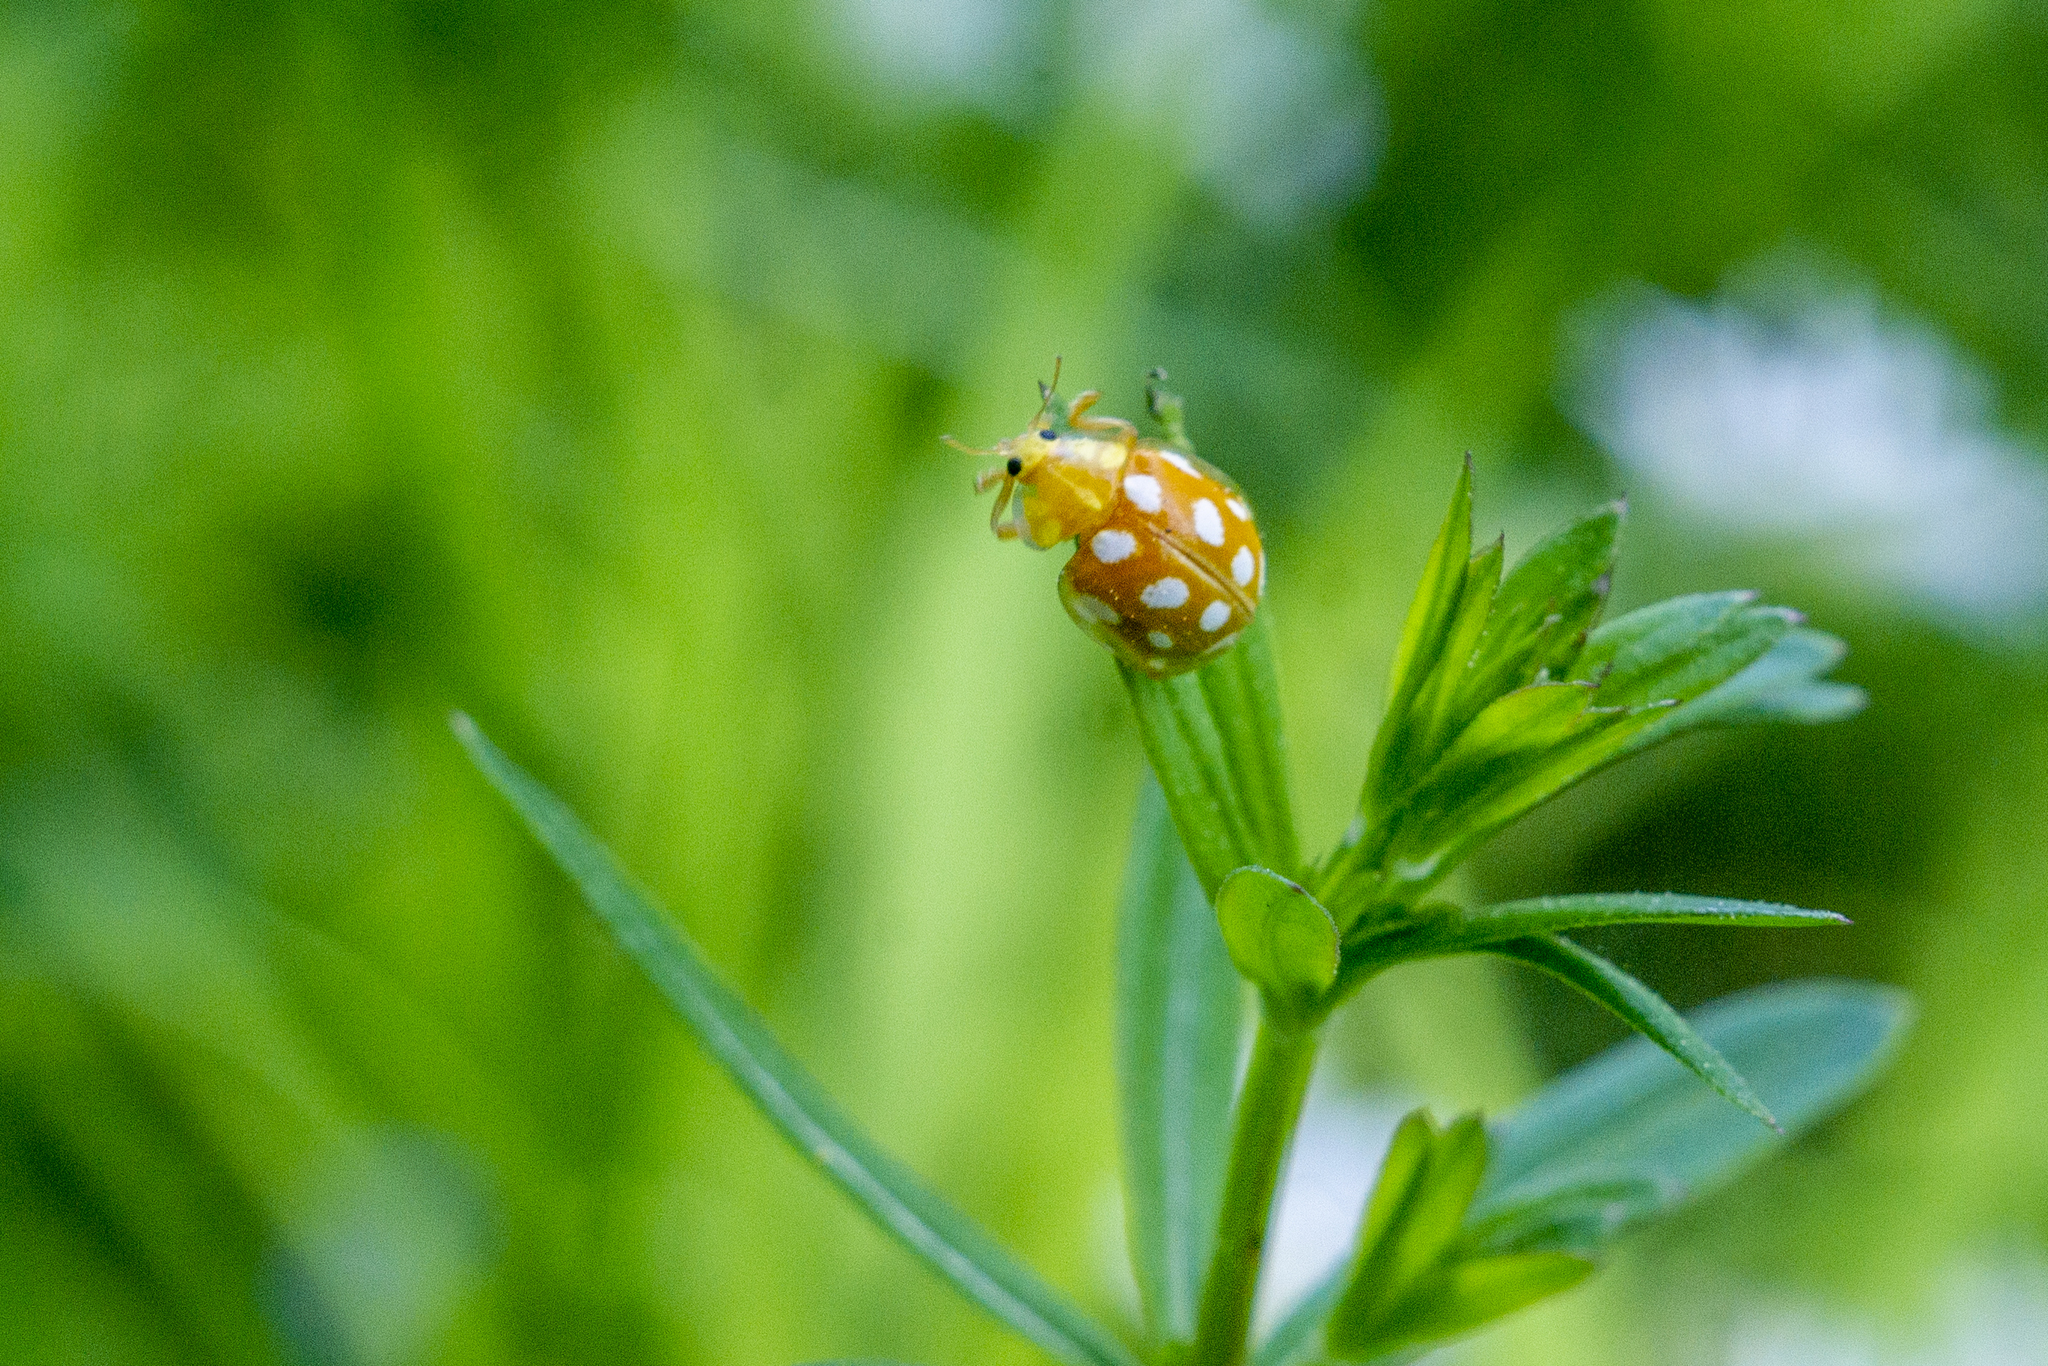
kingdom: Animalia
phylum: Arthropoda
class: Insecta
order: Coleoptera
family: Coccinellidae
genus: Halyzia
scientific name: Halyzia sedecimguttata
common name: Orange ladybird
